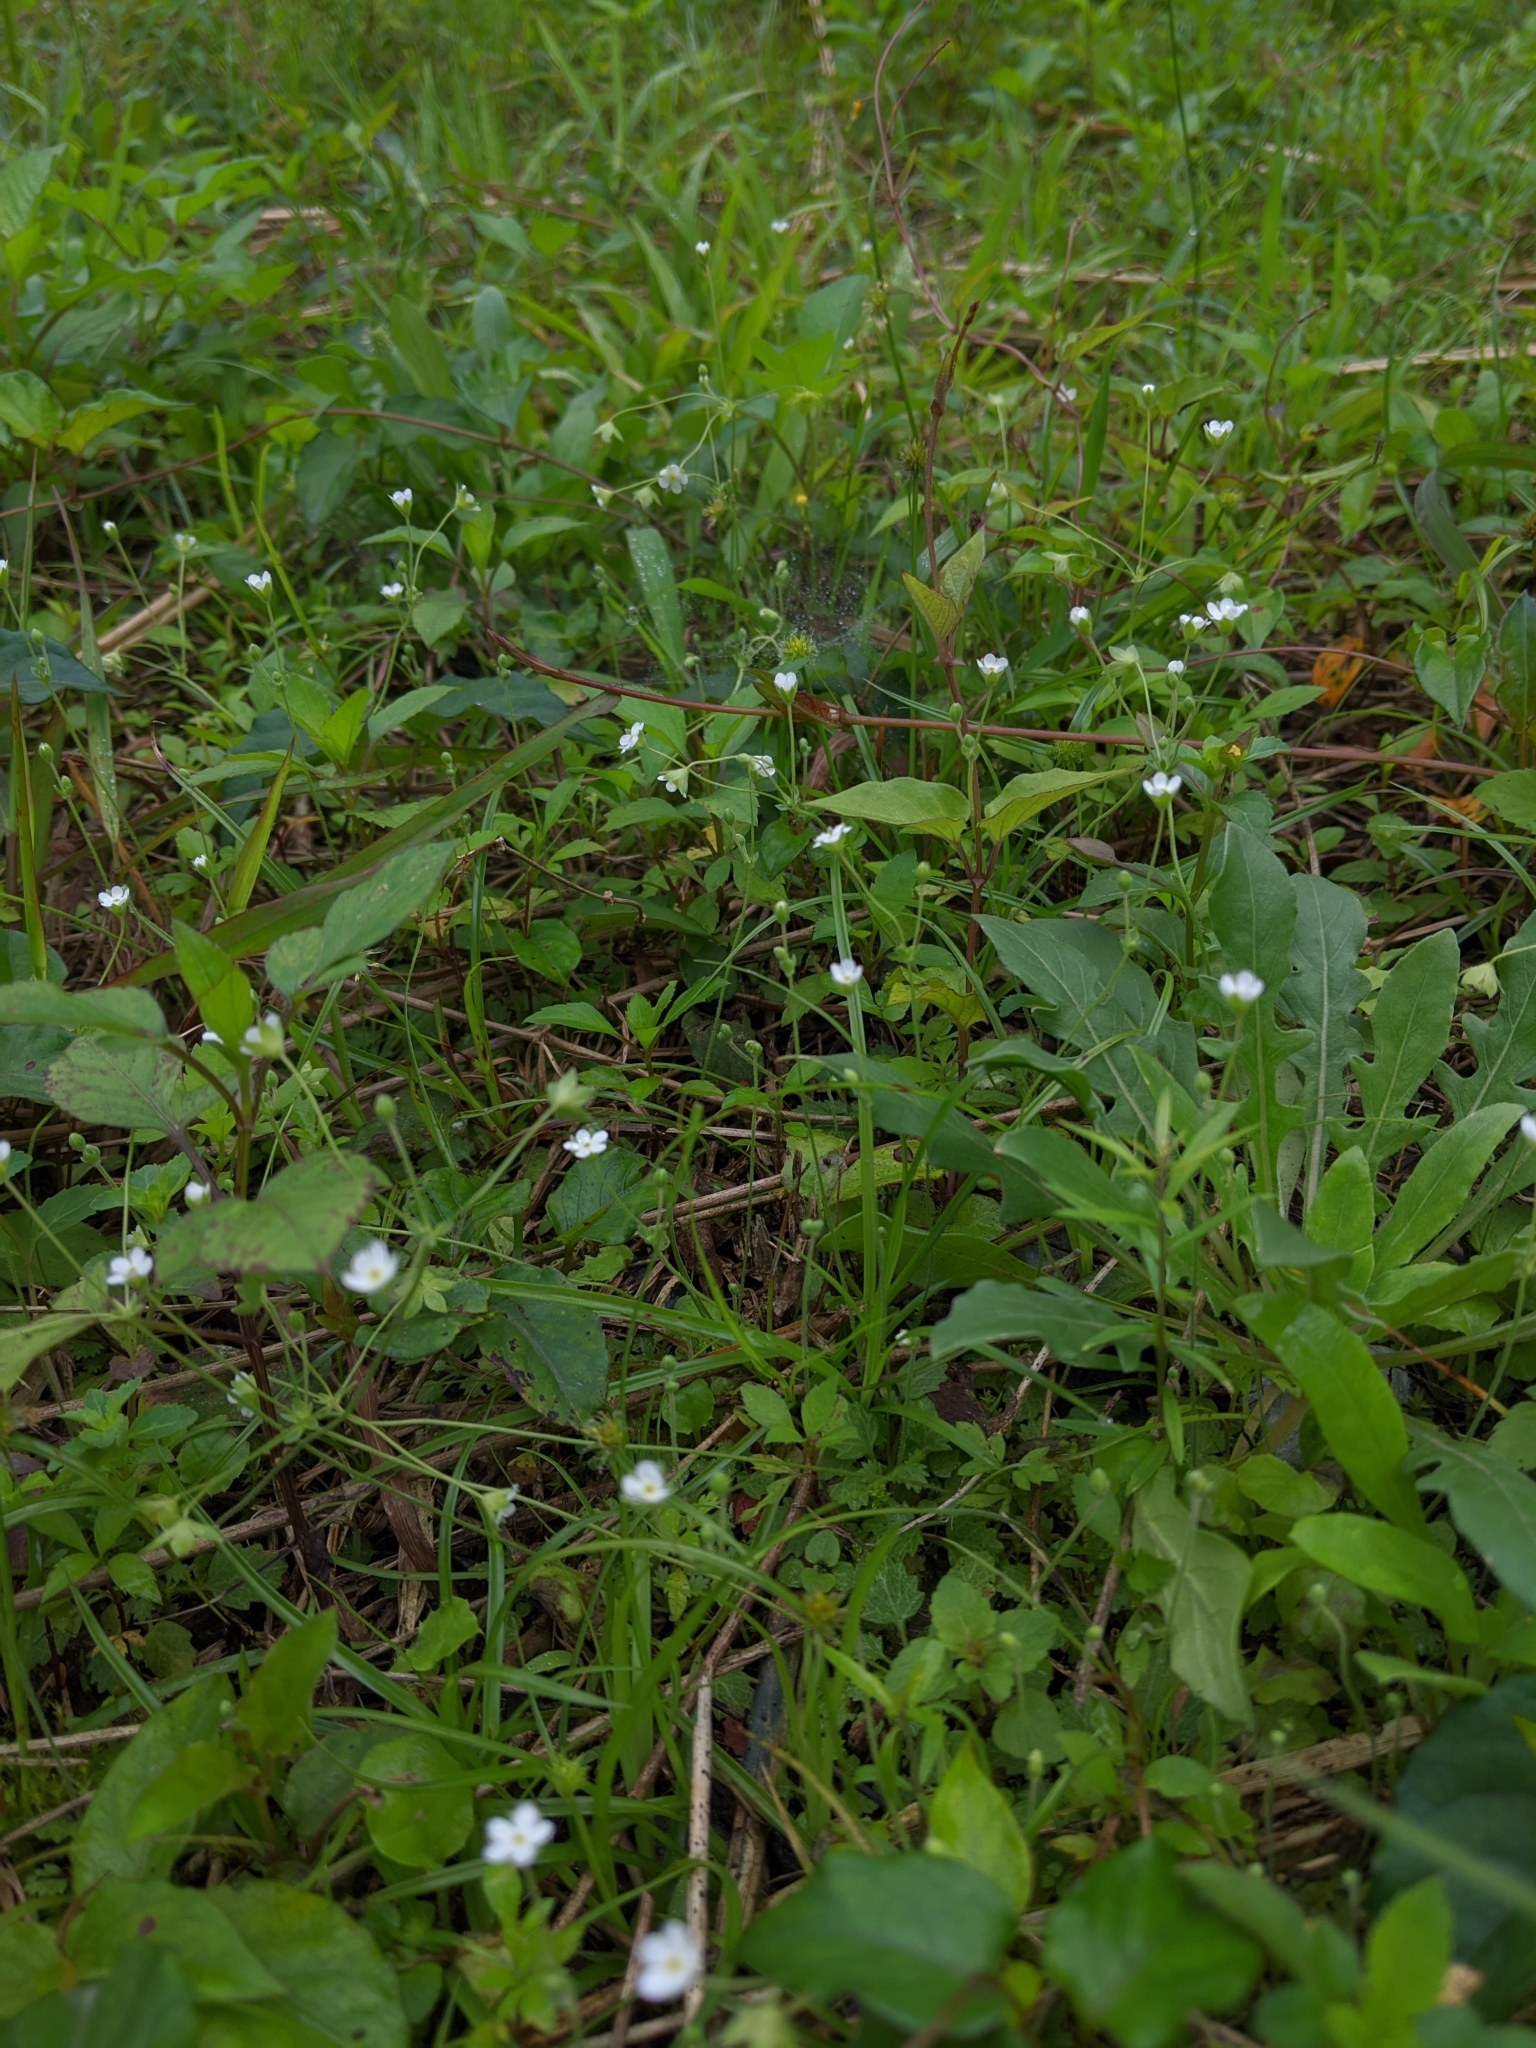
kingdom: Plantae
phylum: Tracheophyta
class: Magnoliopsida
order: Ericales
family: Primulaceae
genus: Androsace
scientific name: Androsace umbellata
